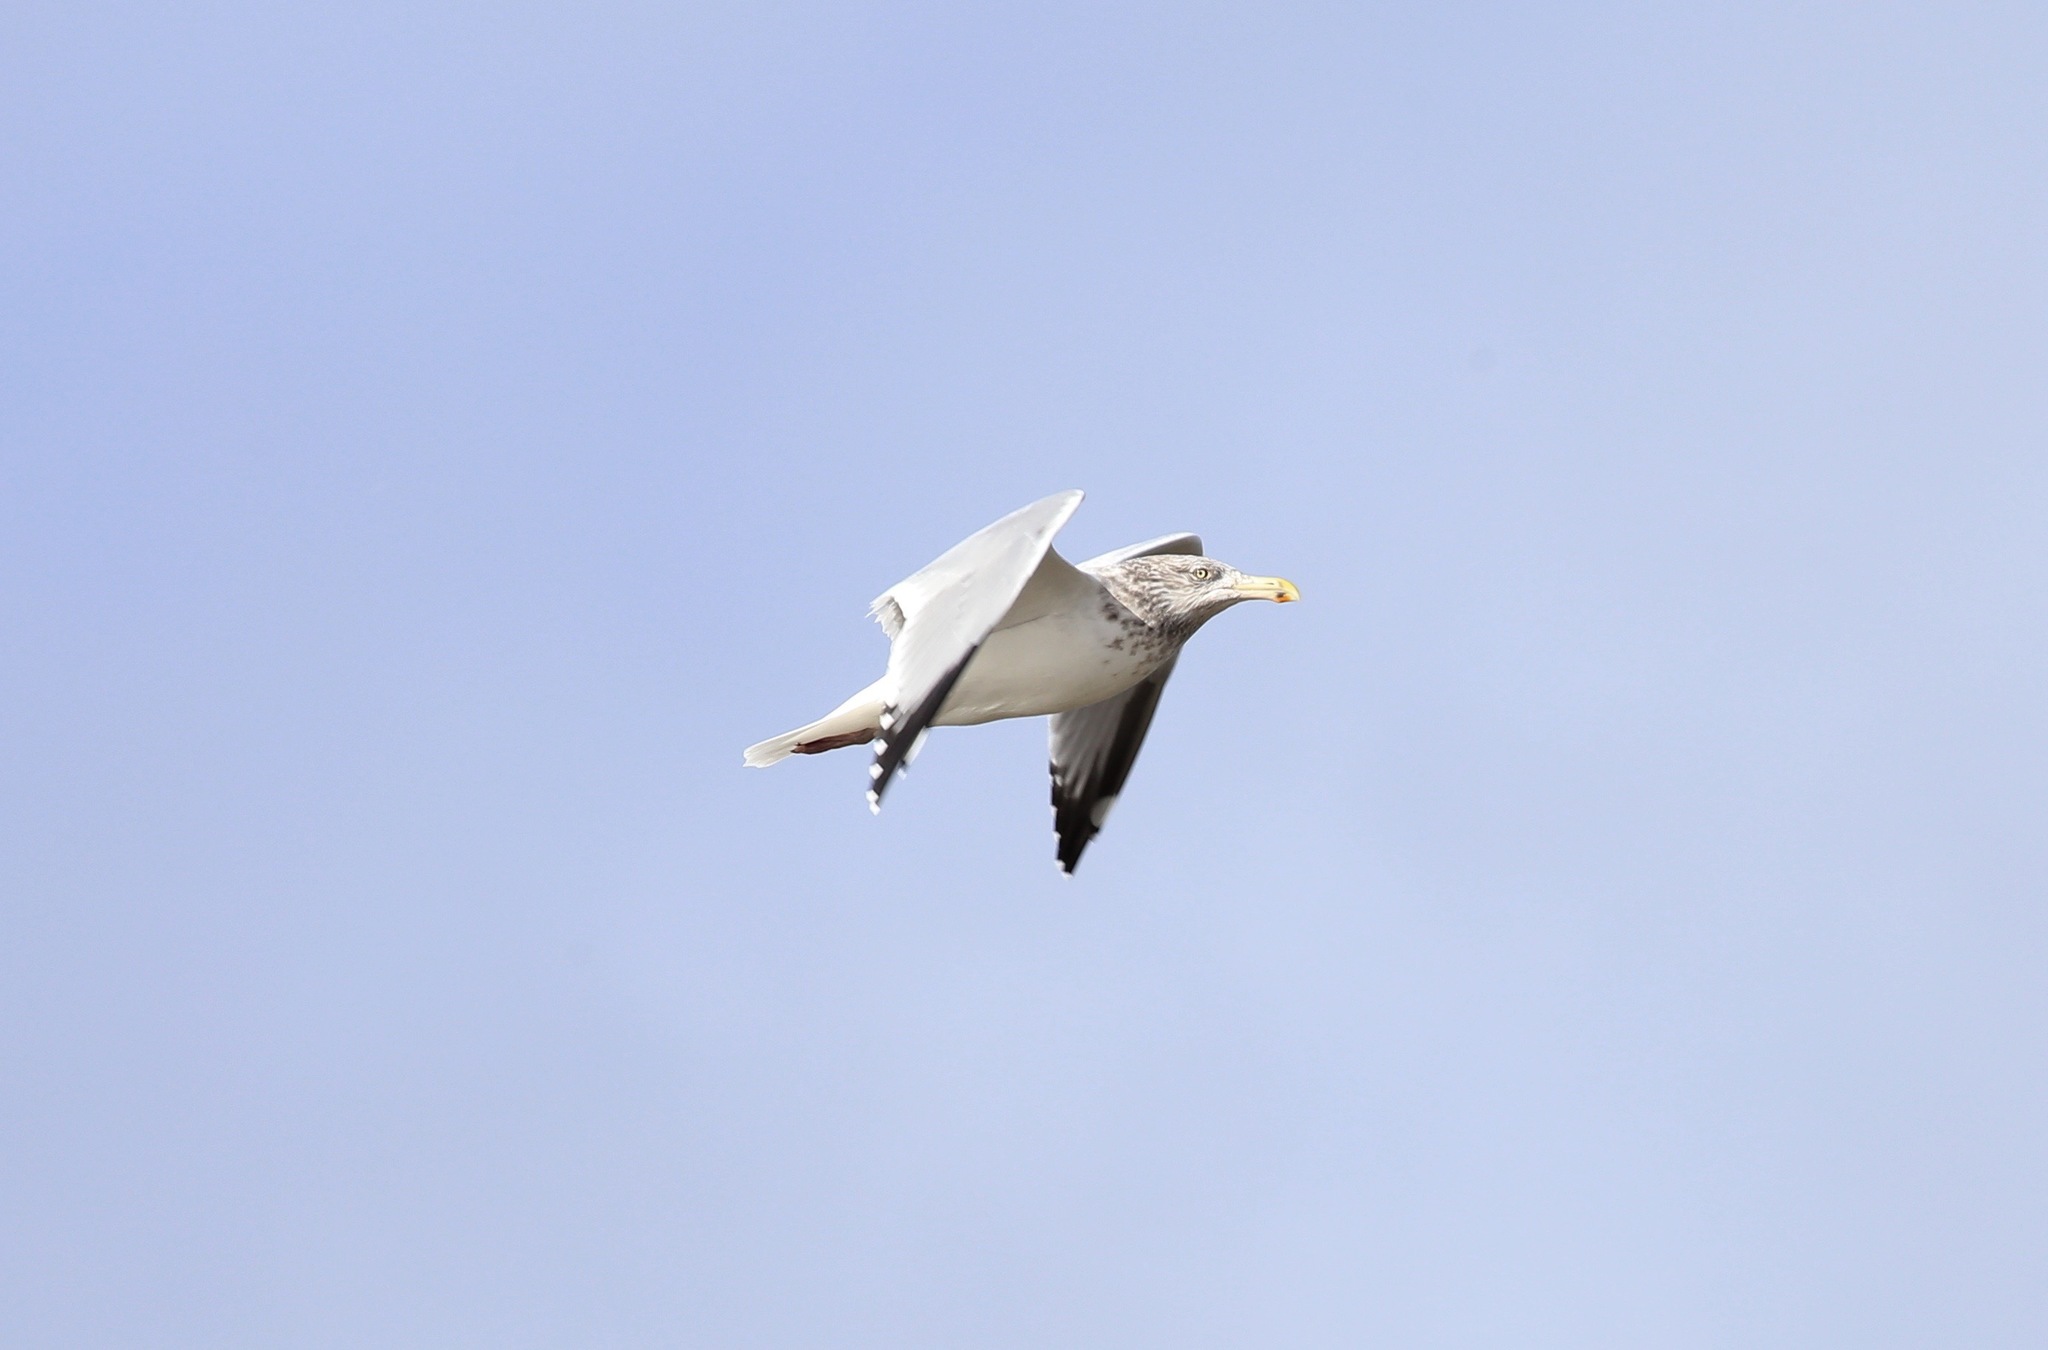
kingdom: Animalia
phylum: Chordata
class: Aves
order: Charadriiformes
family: Laridae
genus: Larus
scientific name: Larus argentatus
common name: Herring gull
